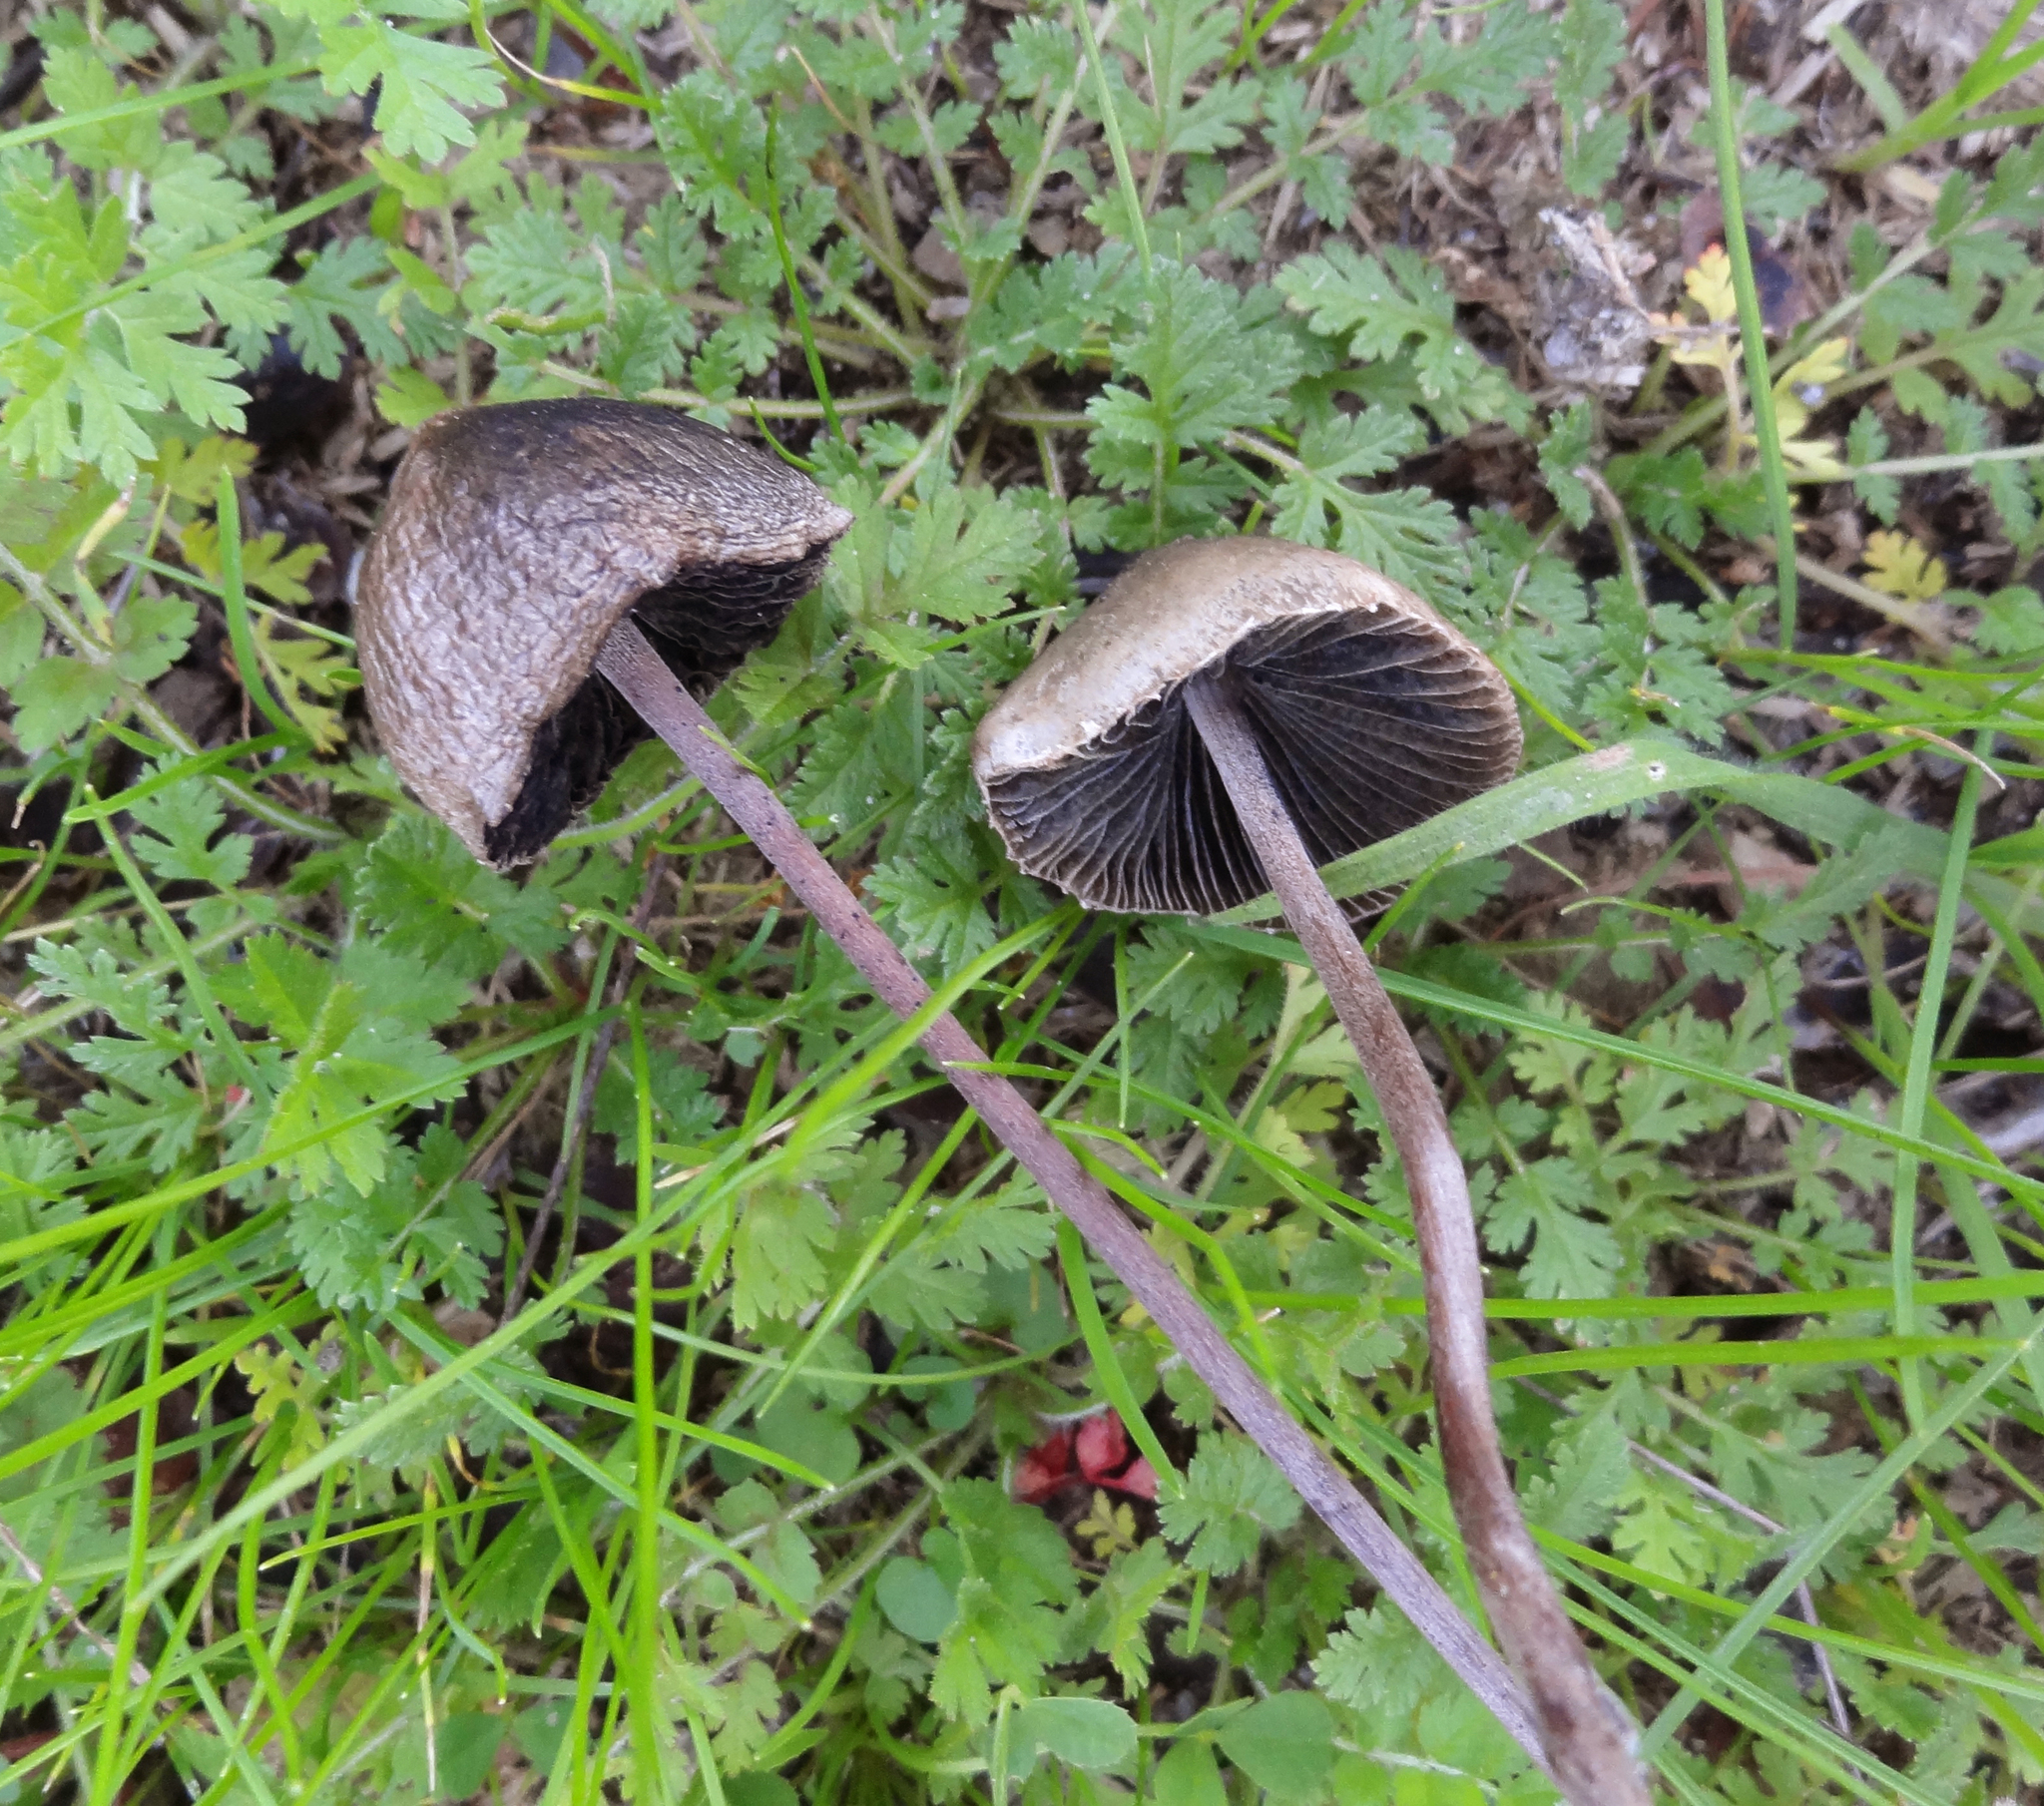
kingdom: Fungi
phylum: Basidiomycota
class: Agaricomycetes
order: Agaricales
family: Bolbitiaceae
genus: Panaeolus
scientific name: Panaeolus papilionaceus
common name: Petticoat mottlegill
